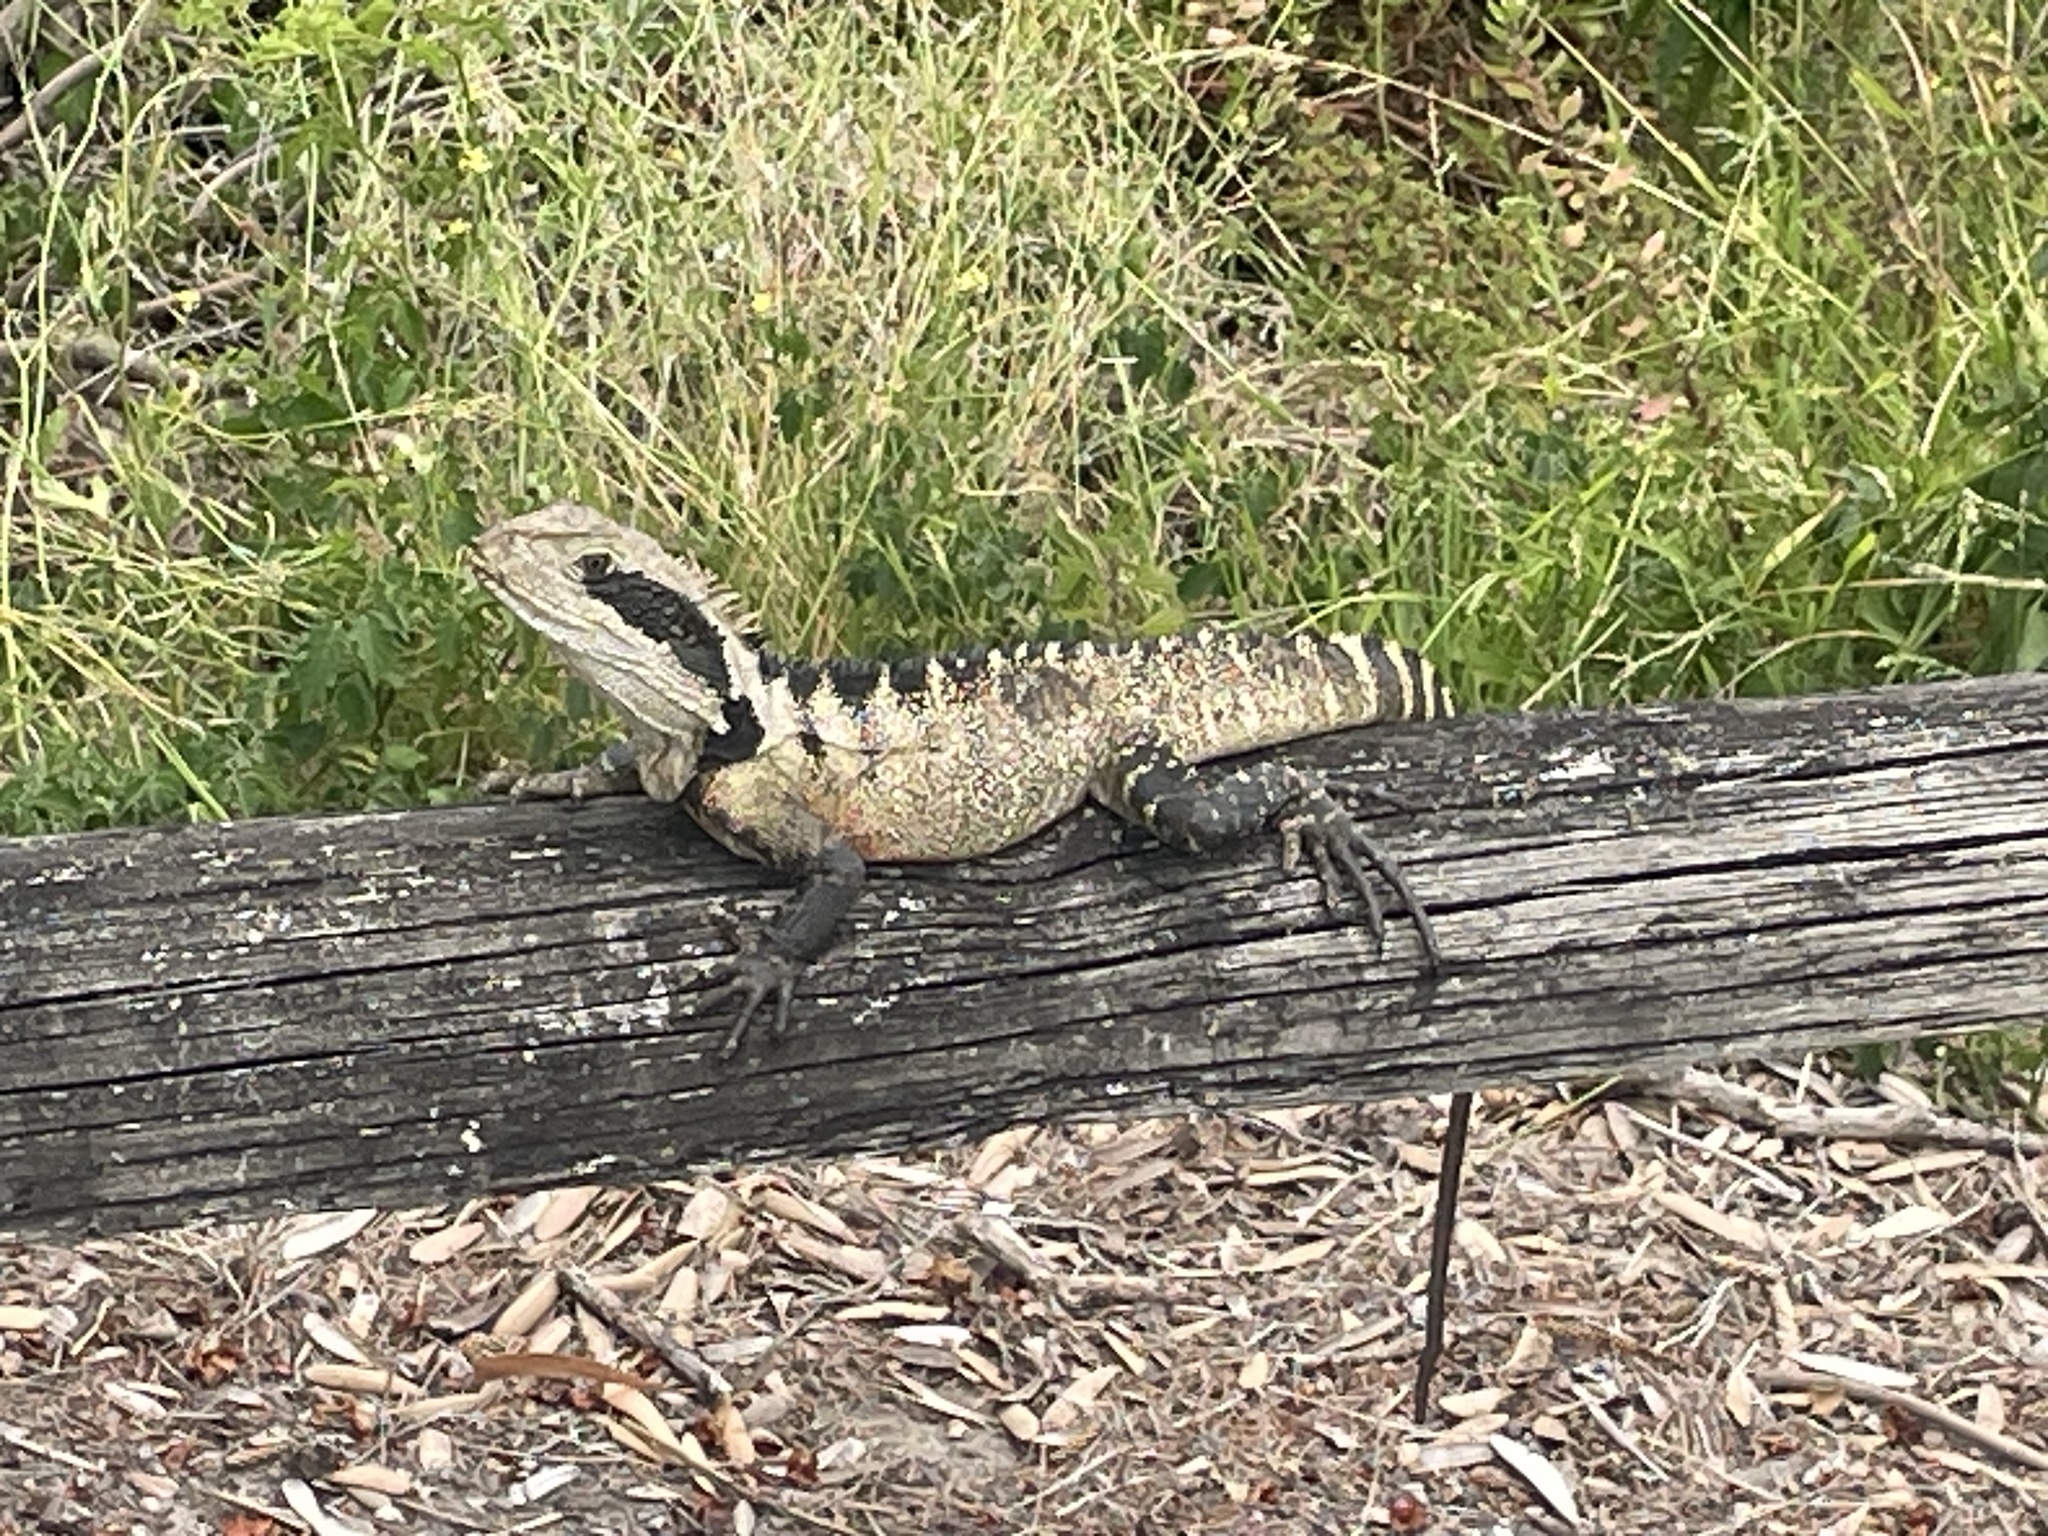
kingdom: Animalia
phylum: Chordata
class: Squamata
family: Agamidae
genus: Intellagama
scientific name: Intellagama lesueurii
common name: Eastern water dragon
